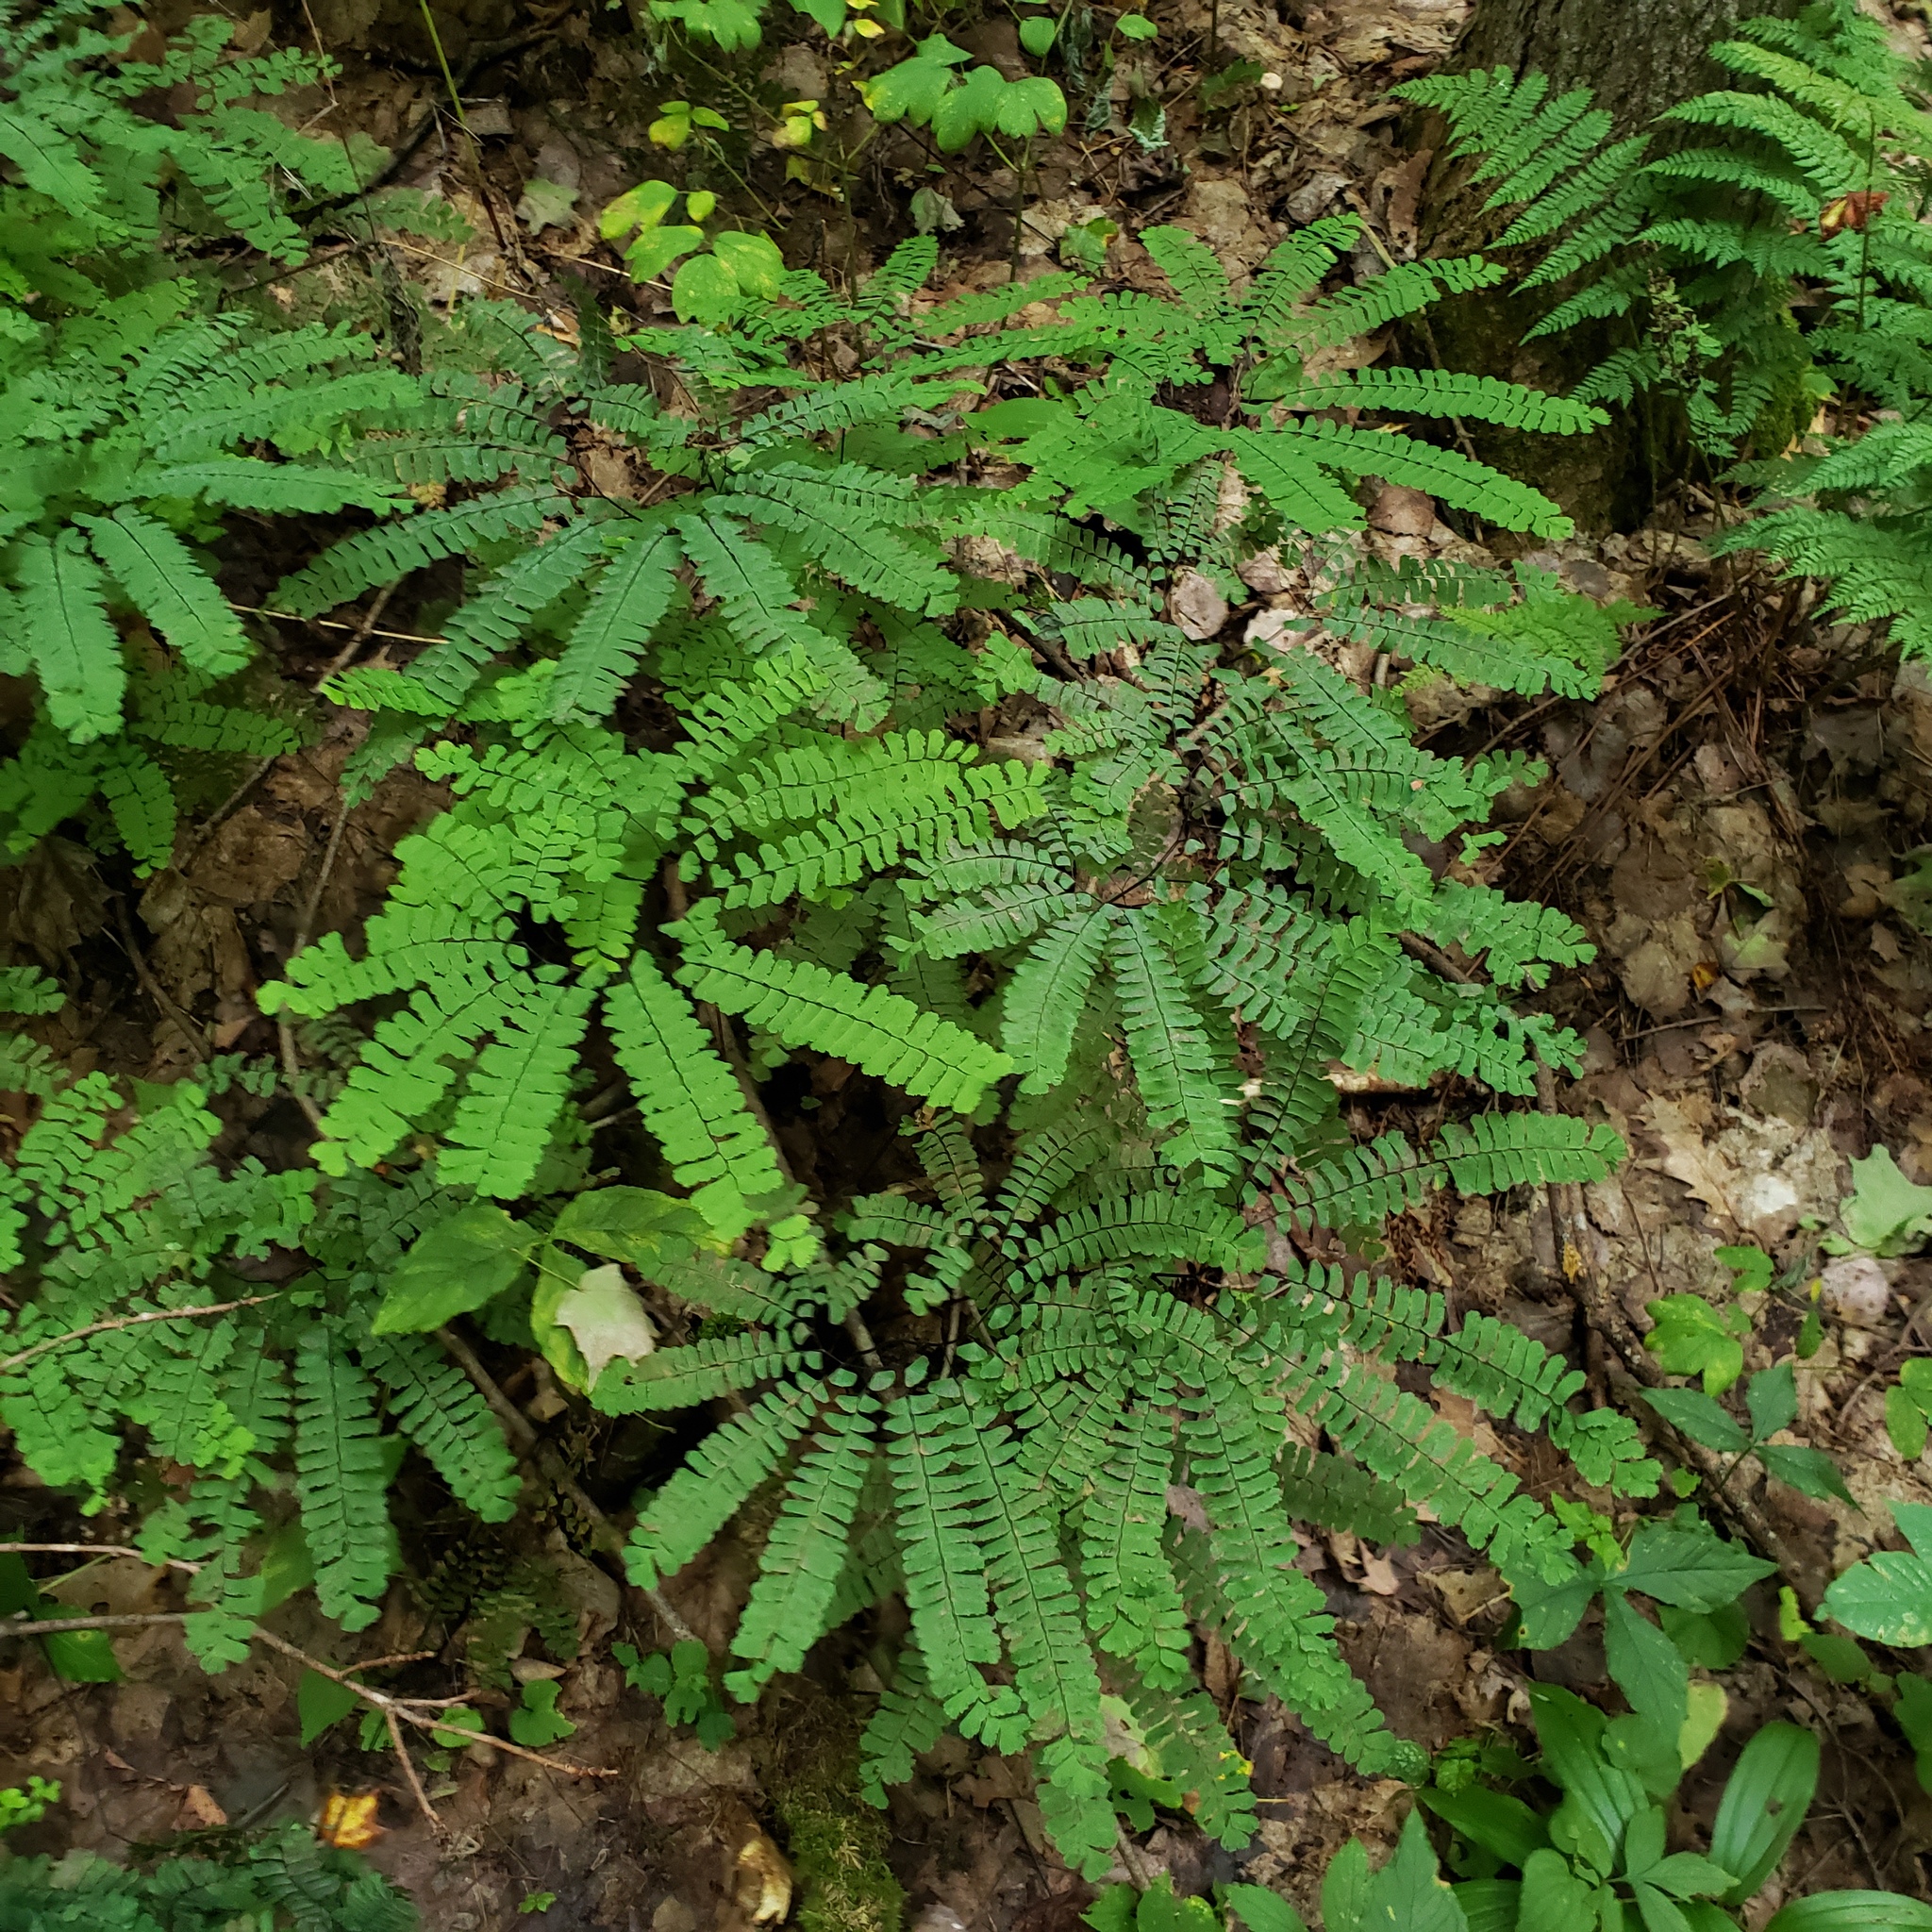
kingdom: Plantae
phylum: Tracheophyta
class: Polypodiopsida
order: Polypodiales
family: Pteridaceae
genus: Adiantum
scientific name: Adiantum pedatum
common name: Five-finger fern
